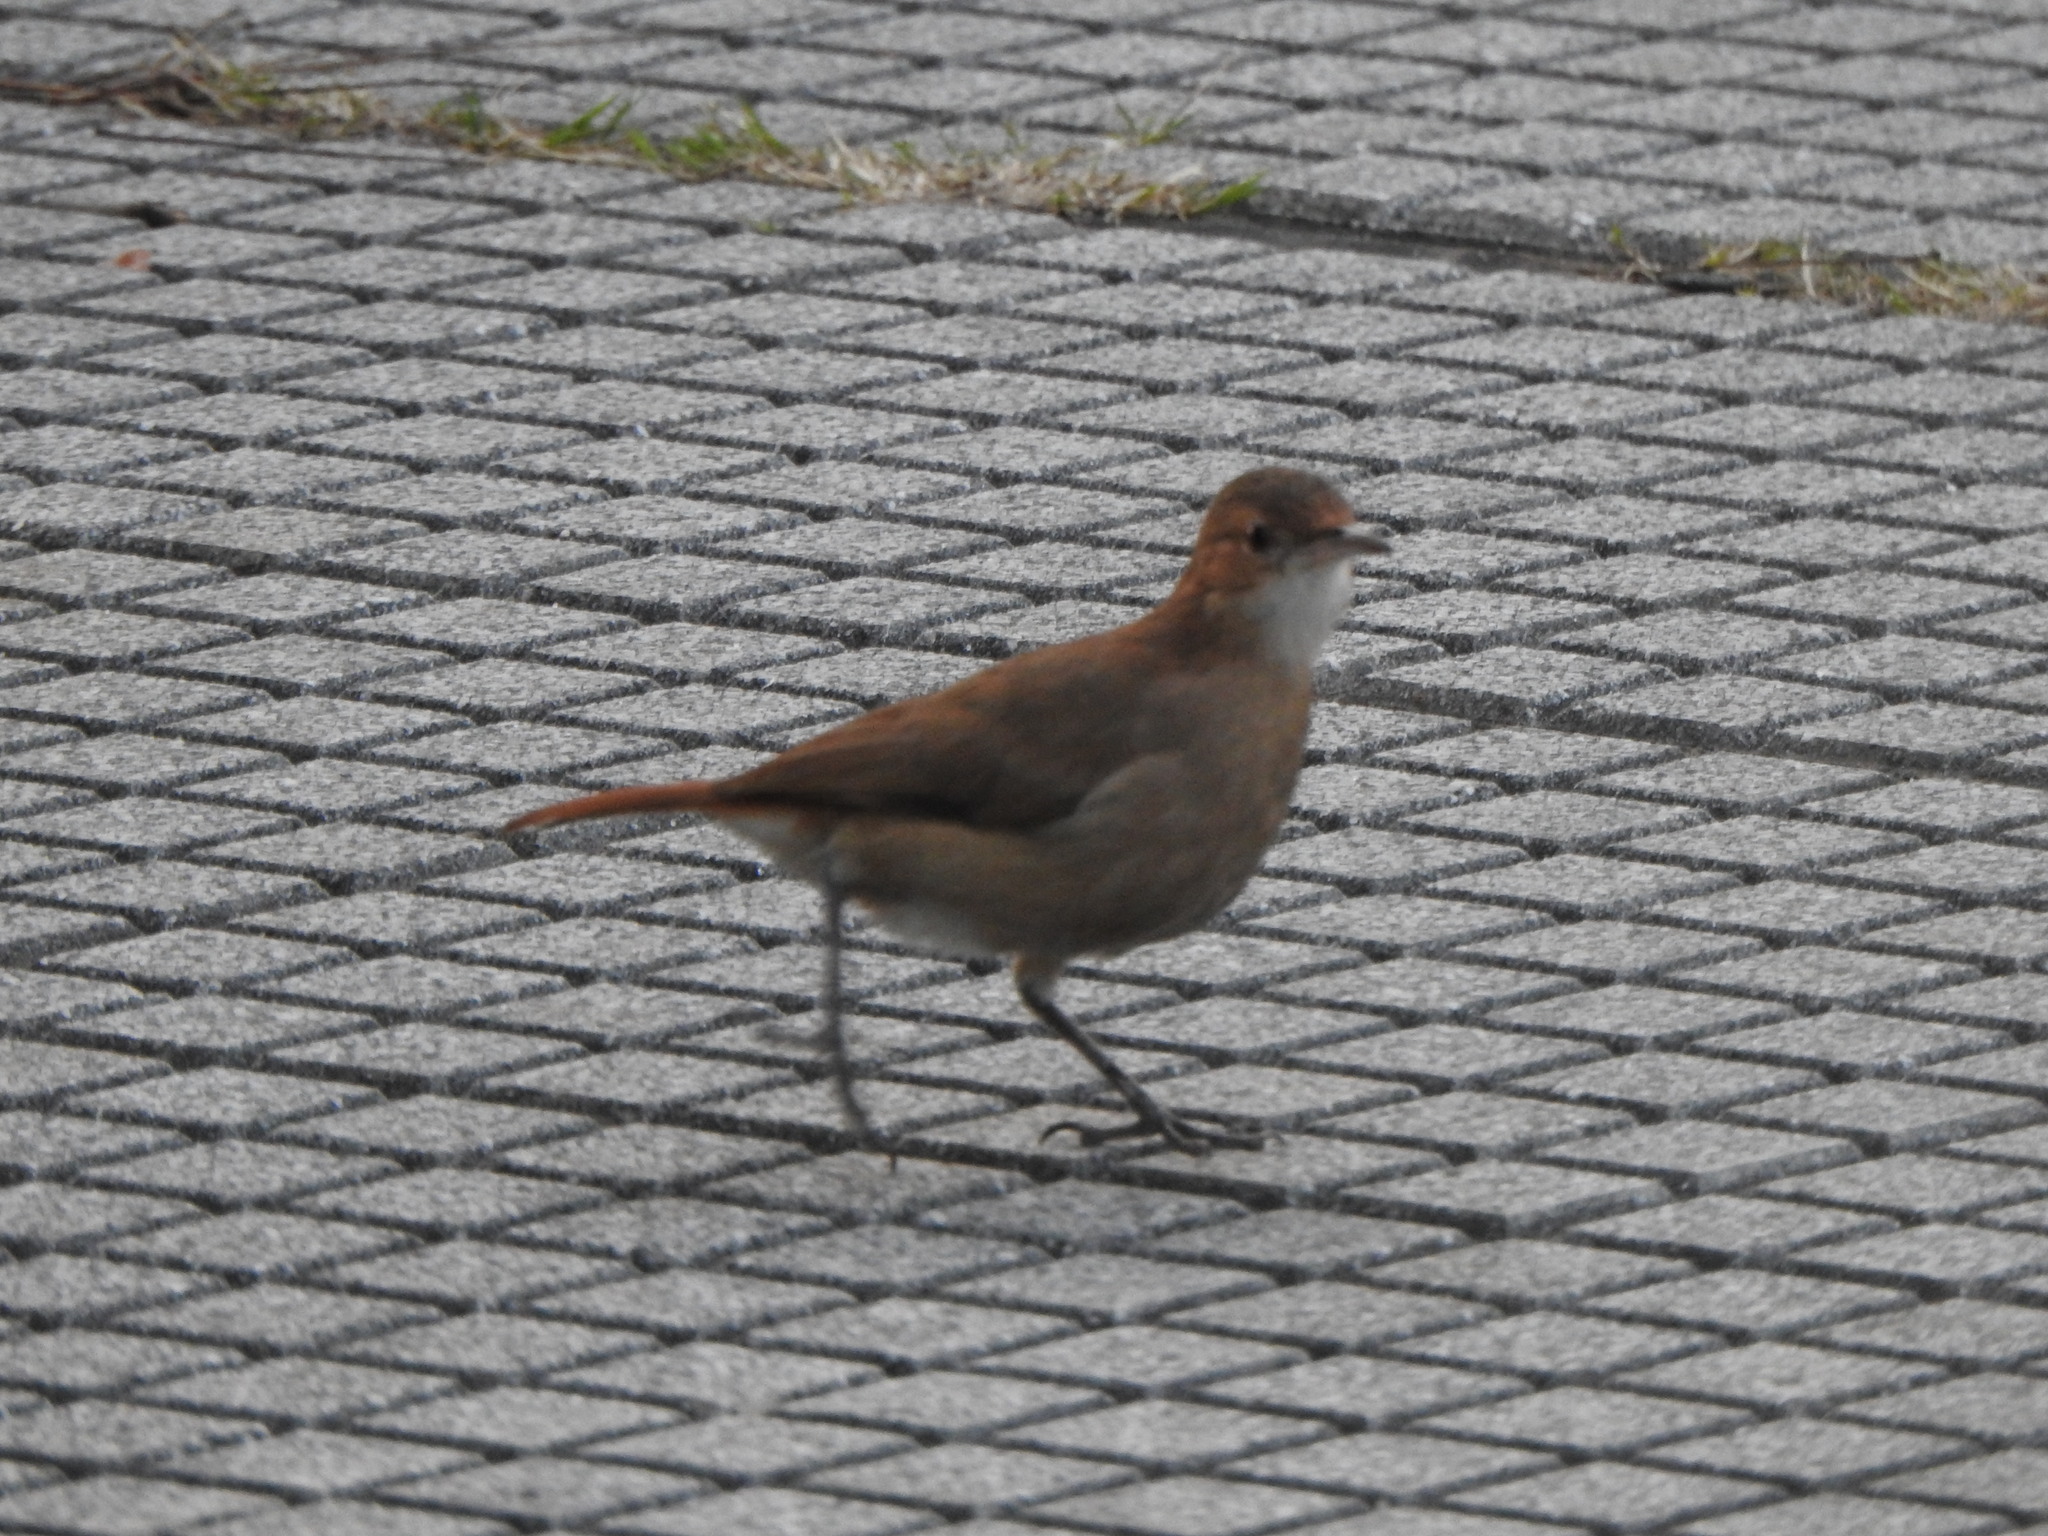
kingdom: Animalia
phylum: Chordata
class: Aves
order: Passeriformes
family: Furnariidae
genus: Furnarius
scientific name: Furnarius rufus
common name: Rufous hornero
